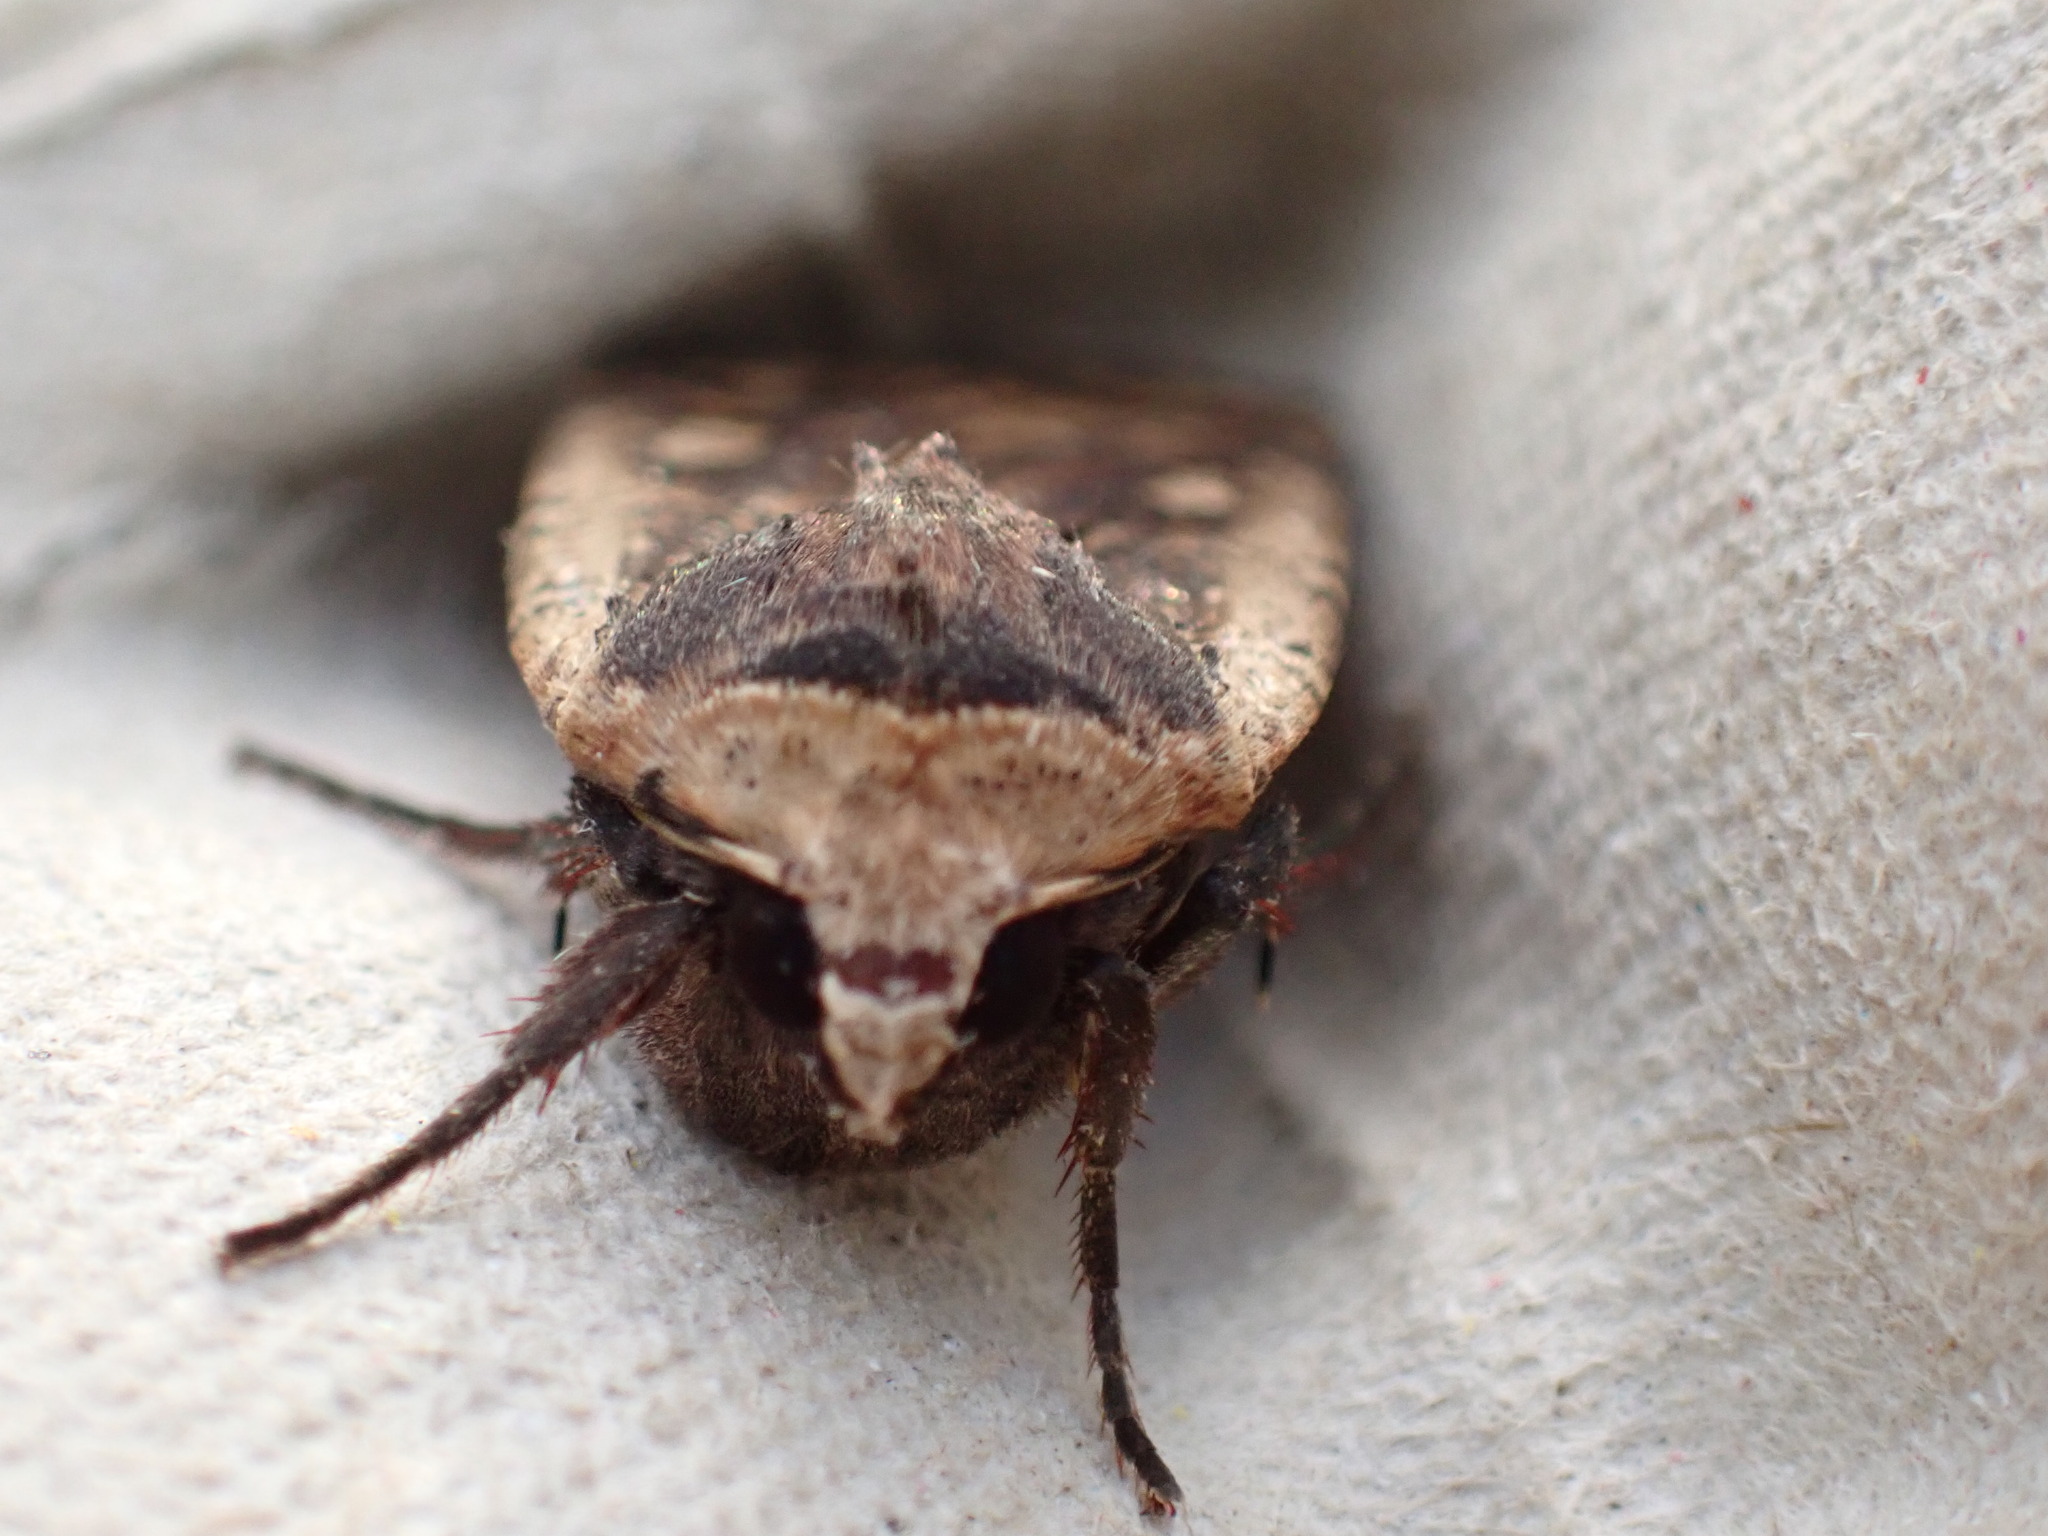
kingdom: Animalia
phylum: Arthropoda
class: Insecta
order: Lepidoptera
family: Noctuidae
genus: Noctua
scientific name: Noctua pronuba
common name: Large yellow underwing
